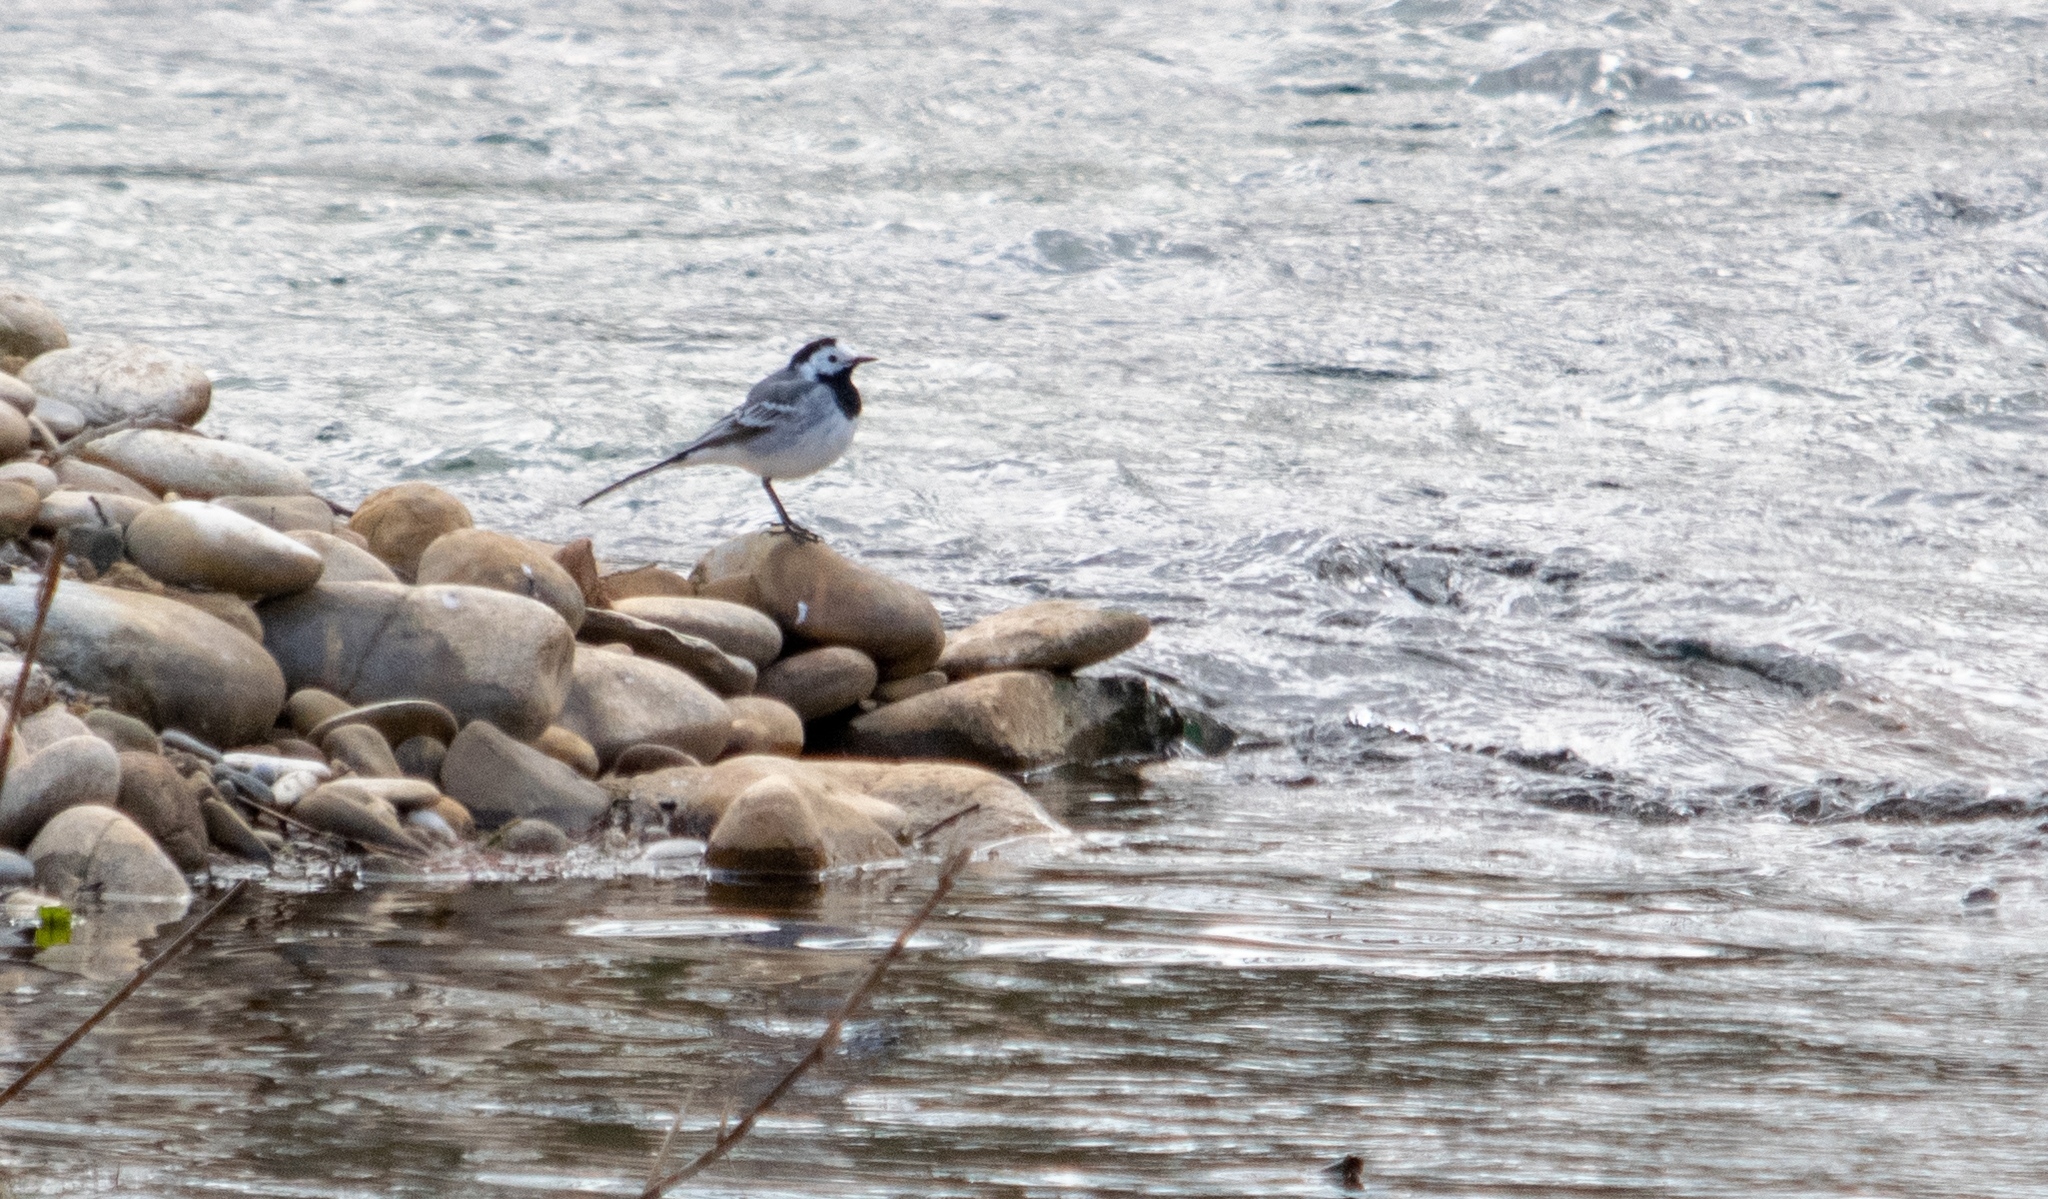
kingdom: Animalia
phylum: Chordata
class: Aves
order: Passeriformes
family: Motacillidae
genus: Motacilla
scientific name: Motacilla alba
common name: White wagtail
